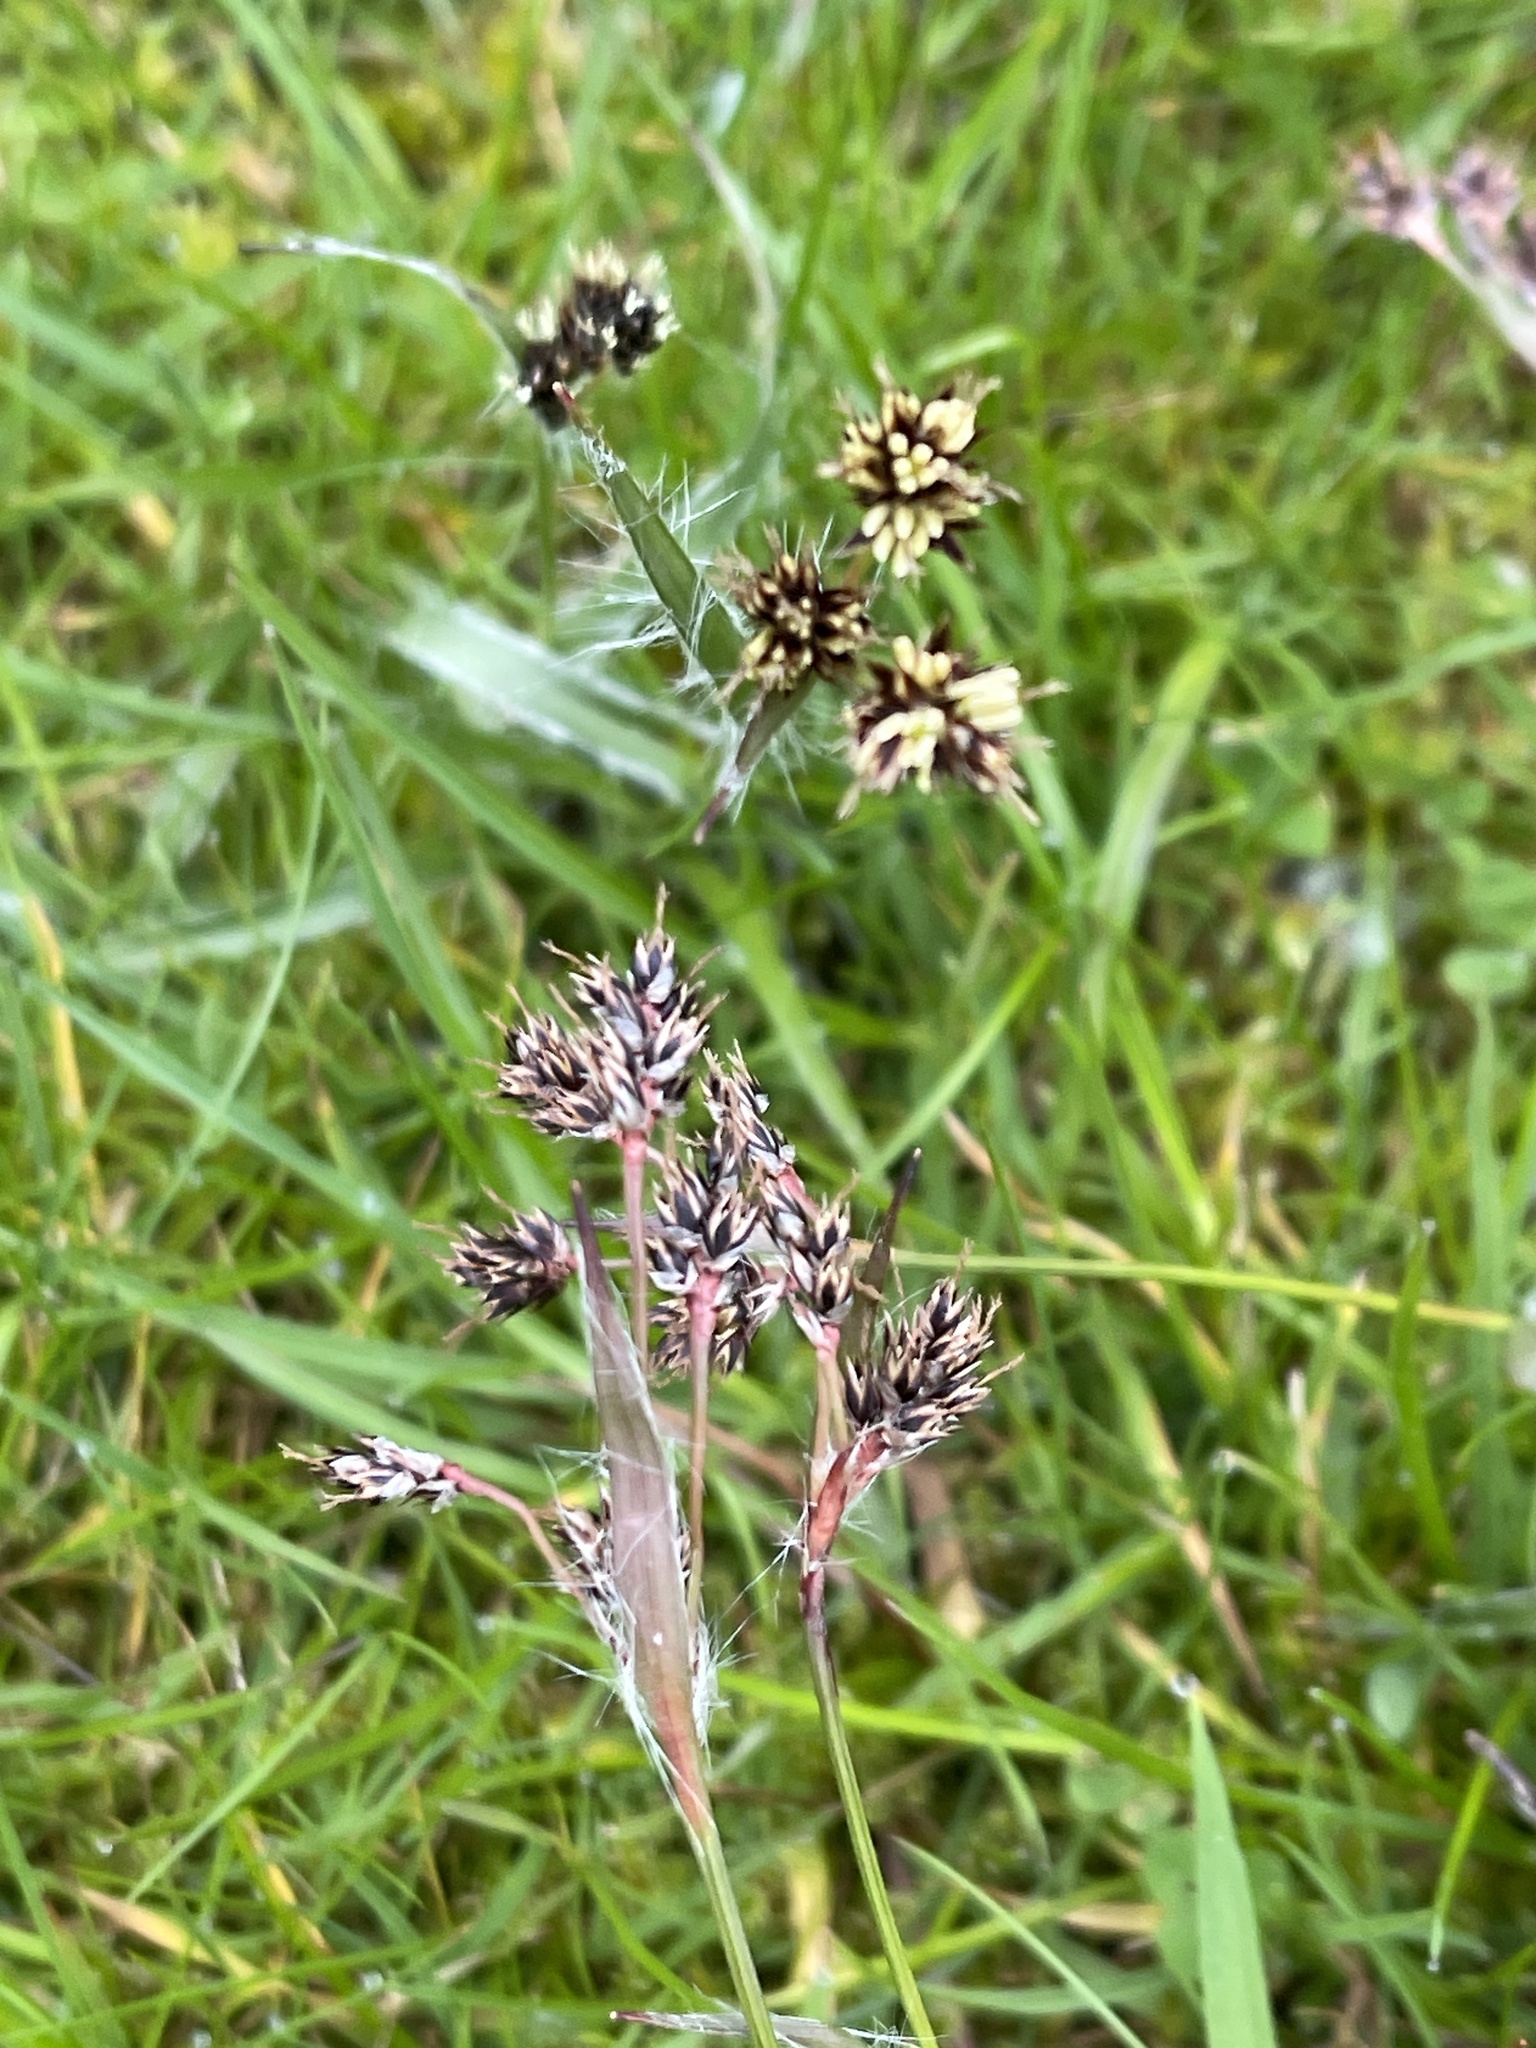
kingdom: Plantae
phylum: Tracheophyta
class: Liliopsida
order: Poales
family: Juncaceae
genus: Luzula
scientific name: Luzula campestris
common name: Field wood-rush
